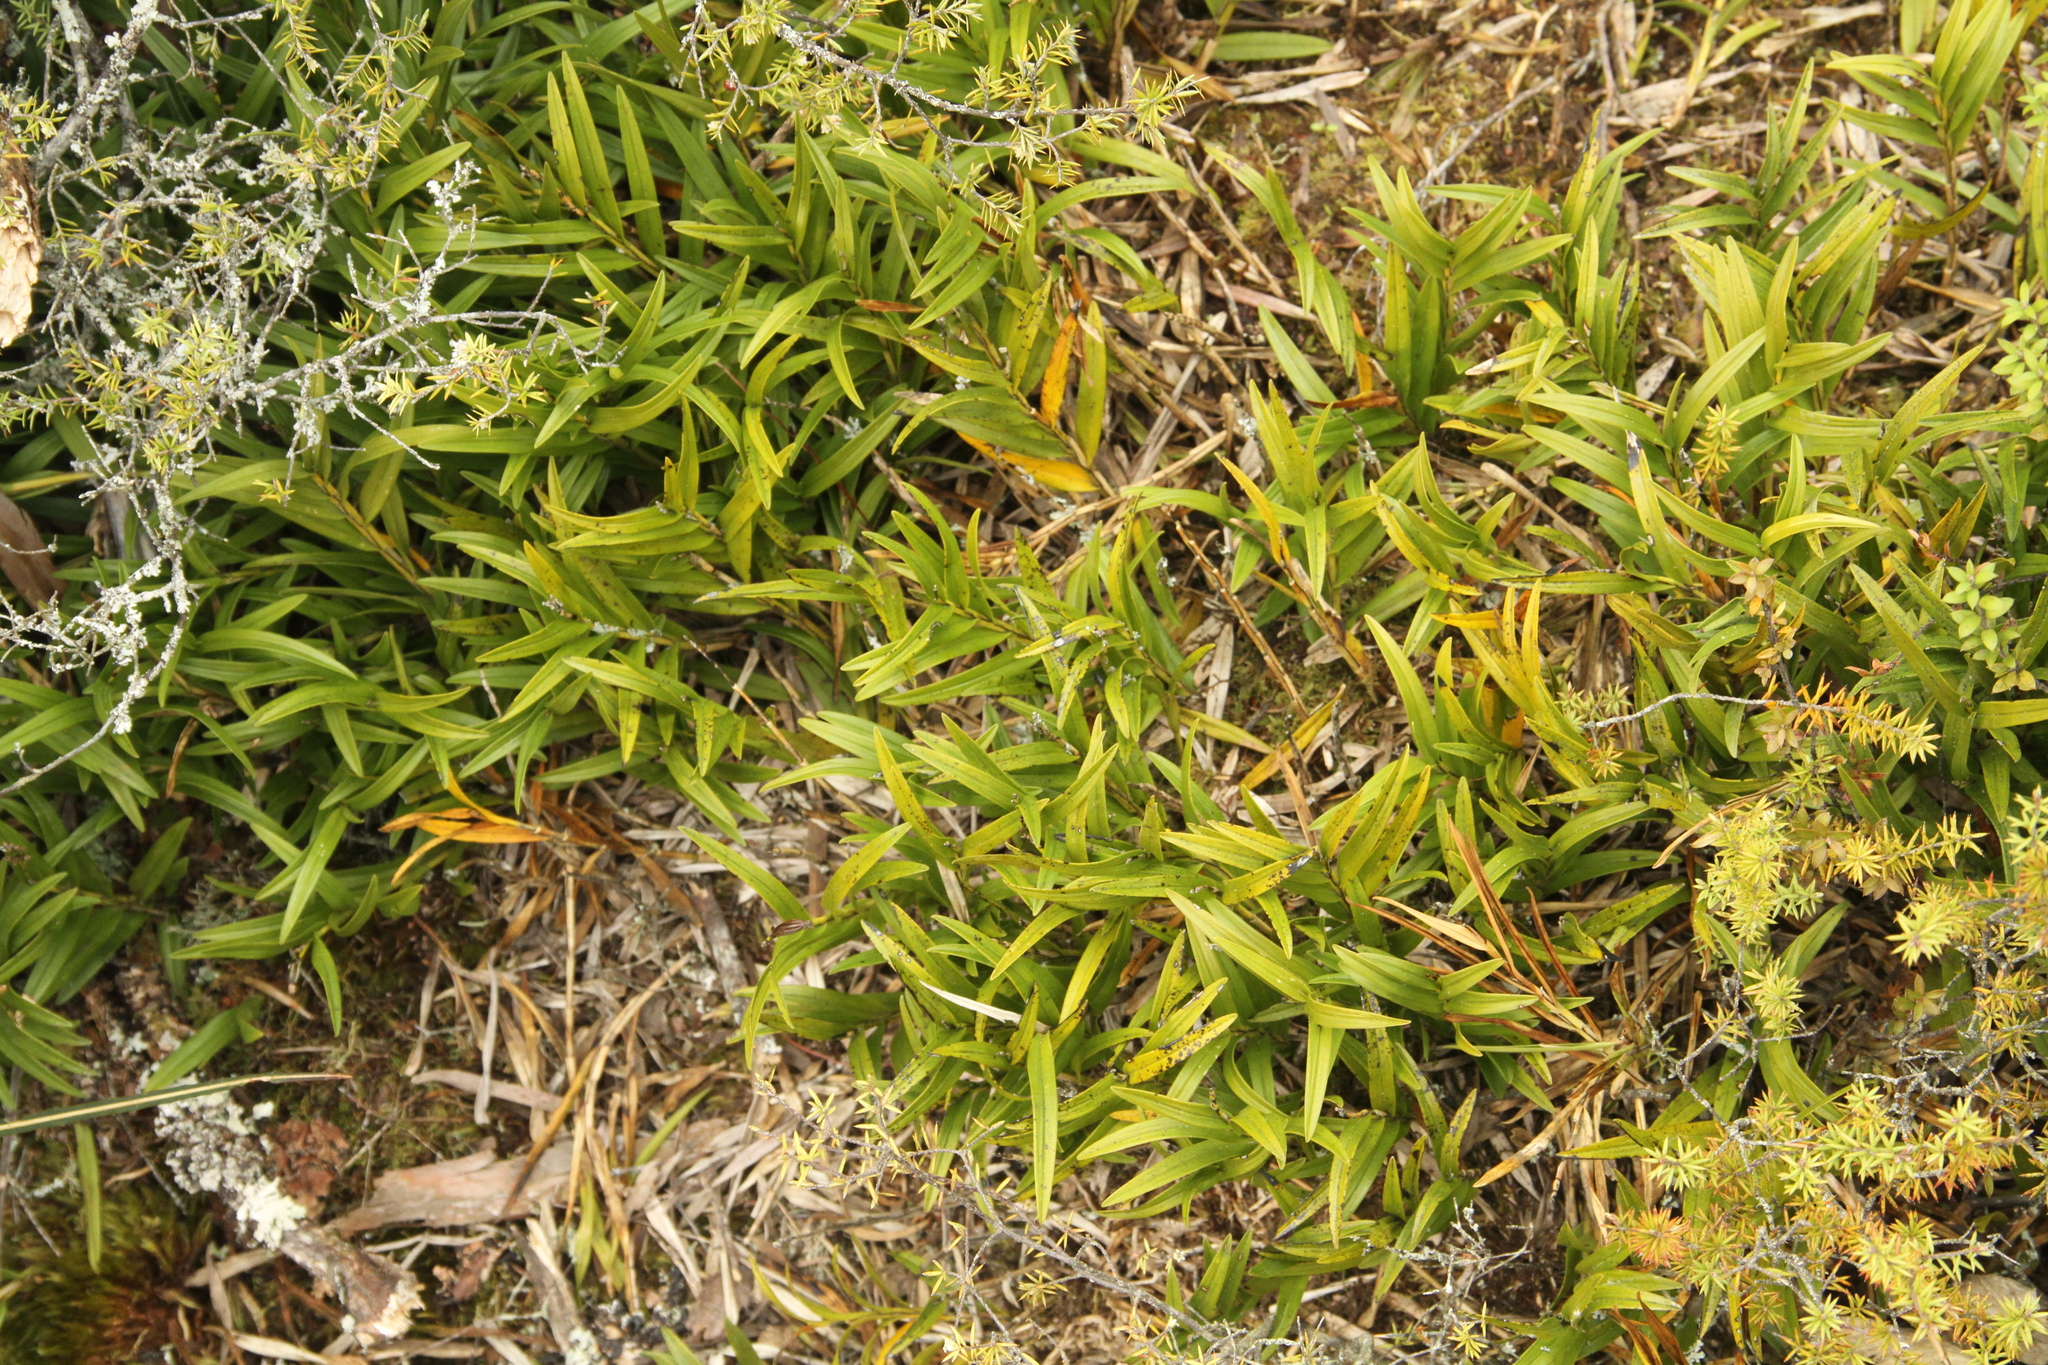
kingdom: Plantae
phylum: Tracheophyta
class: Liliopsida
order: Asparagales
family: Orchidaceae
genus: Earina
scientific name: Earina autumnalis
